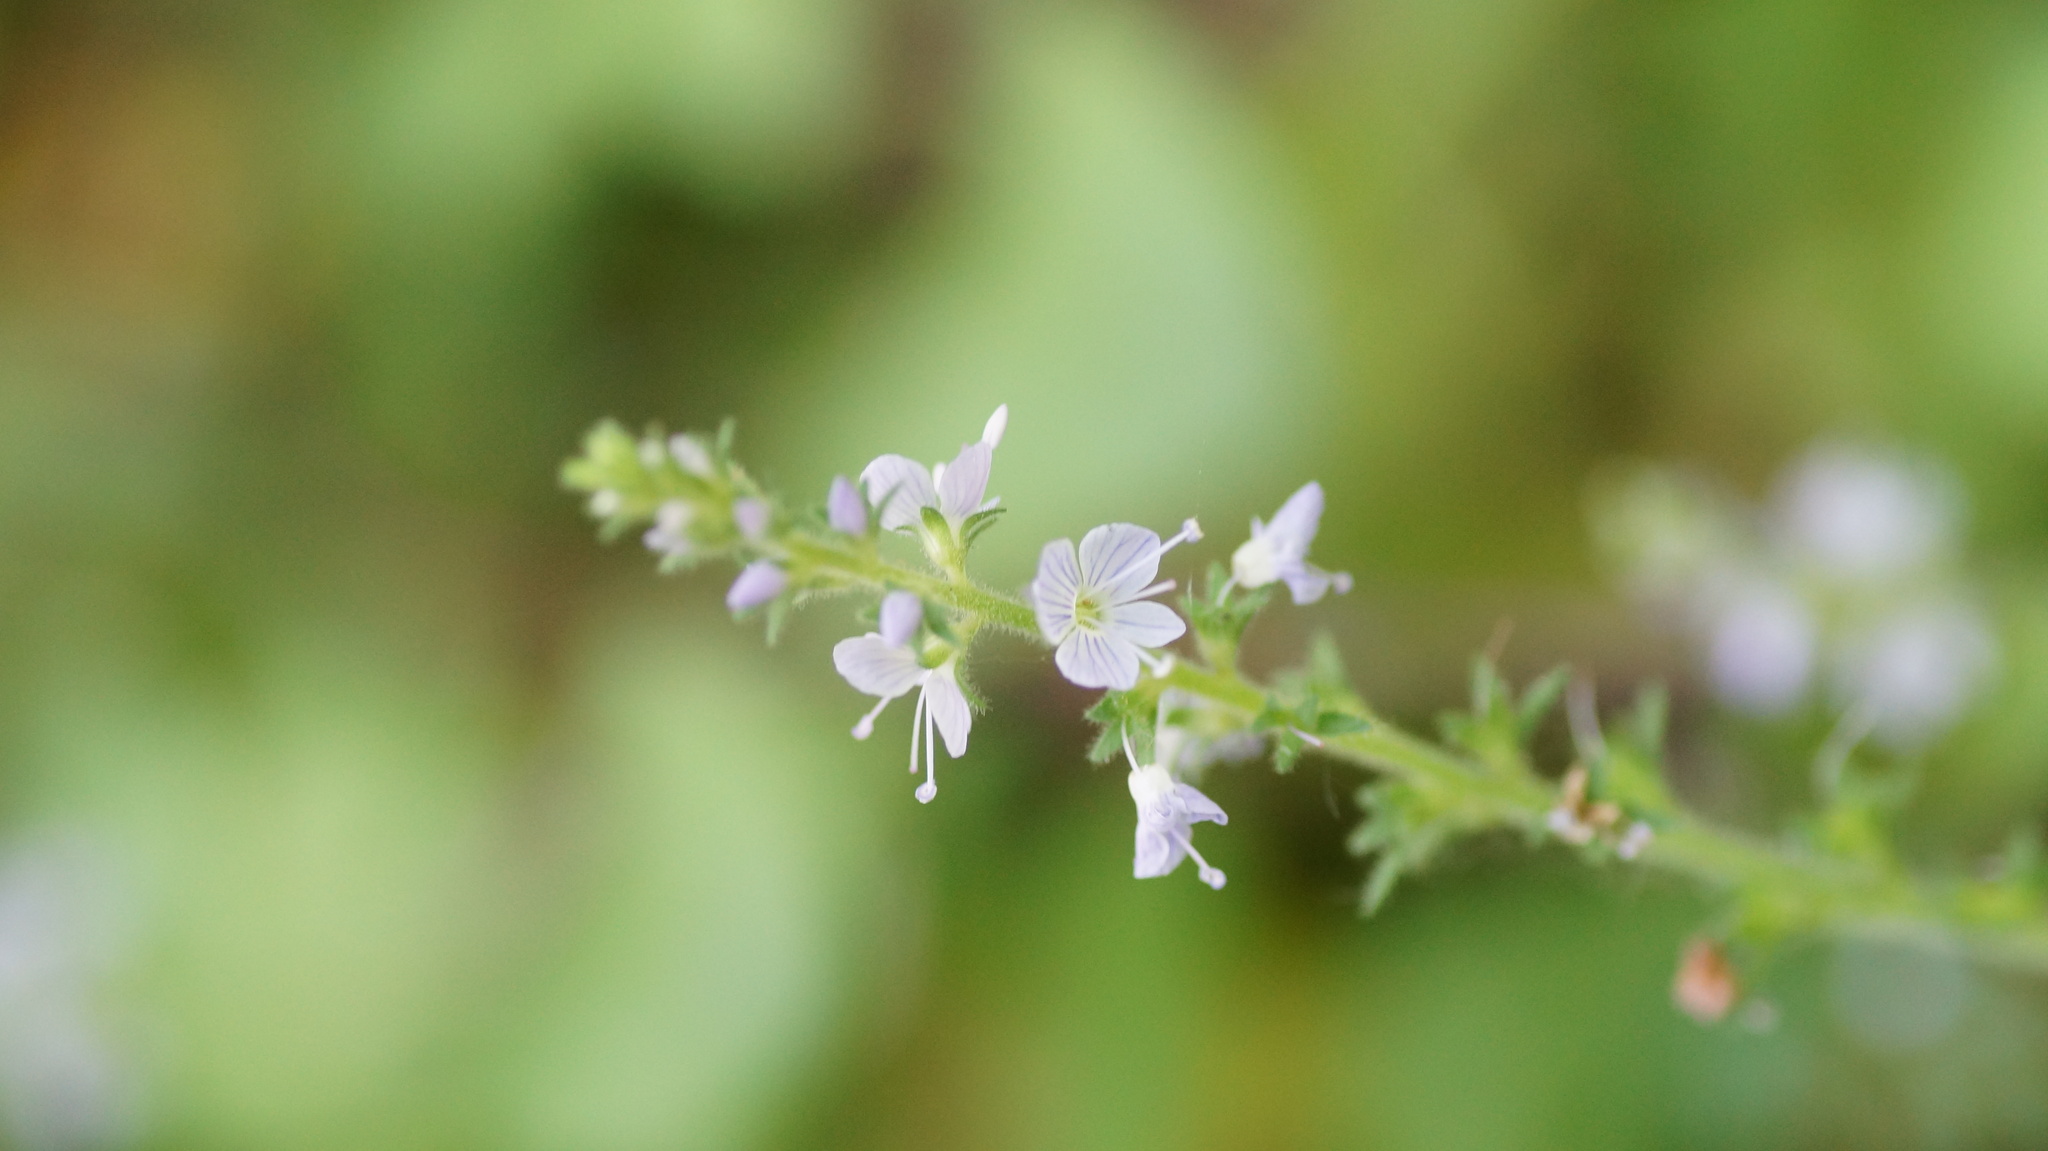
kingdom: Plantae
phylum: Tracheophyta
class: Magnoliopsida
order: Lamiales
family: Plantaginaceae
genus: Veronica
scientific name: Veronica officinalis
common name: Common speedwell
